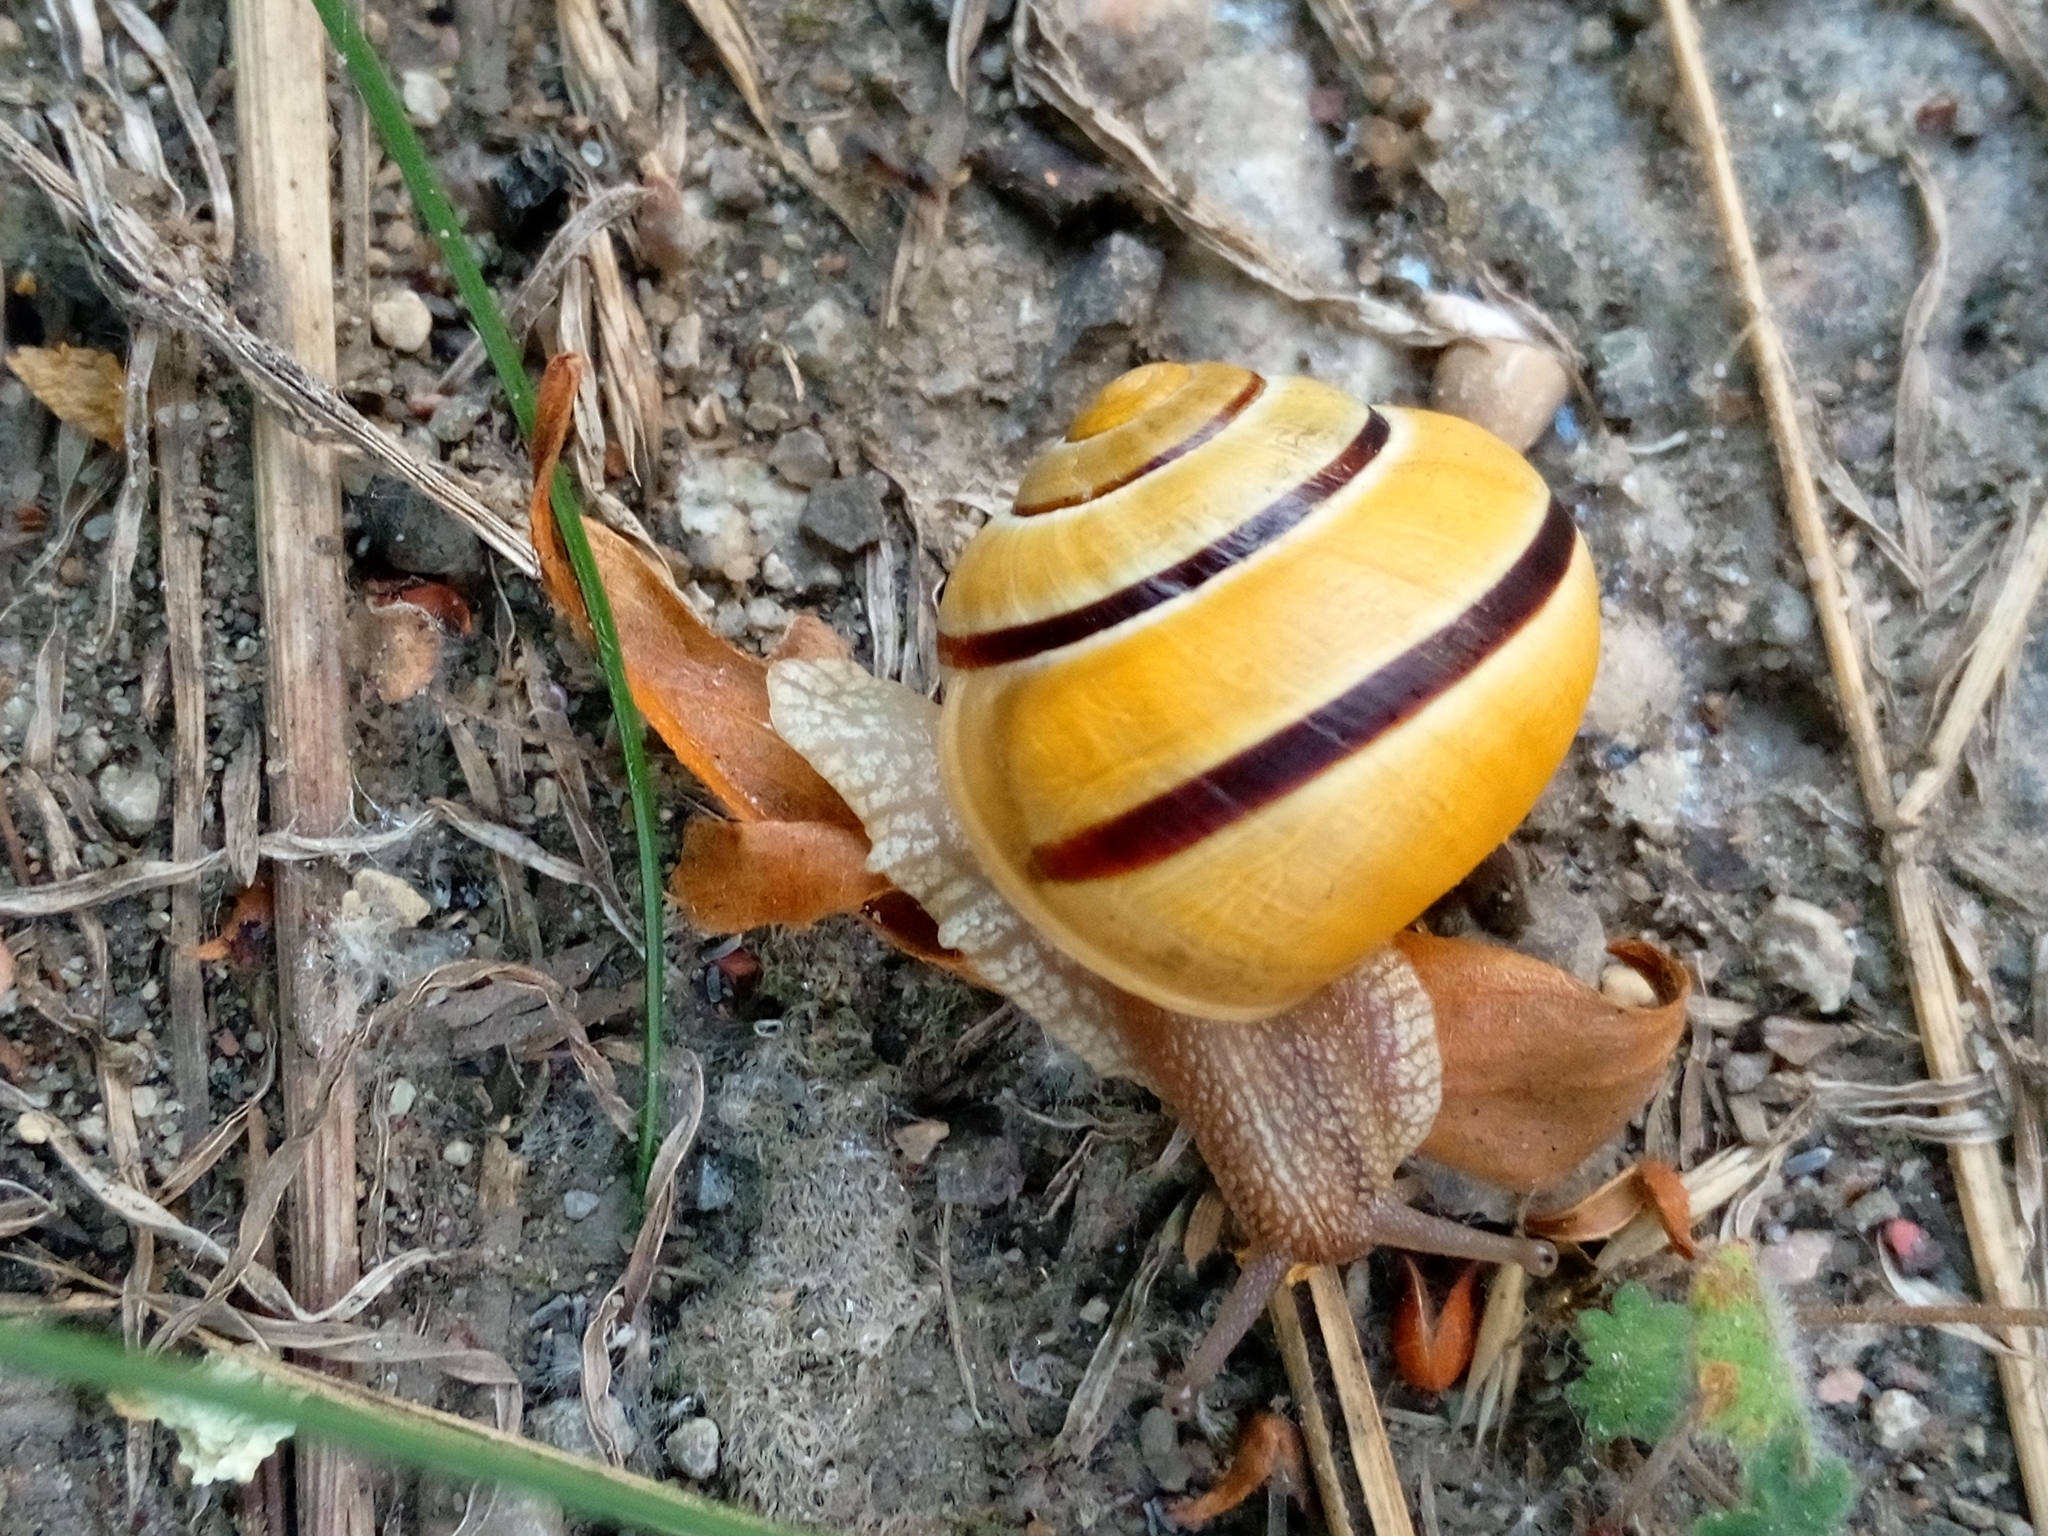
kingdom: Animalia
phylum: Mollusca
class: Gastropoda
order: Stylommatophora
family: Helicidae
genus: Cepaea
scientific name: Cepaea nemoralis
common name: Grovesnail
